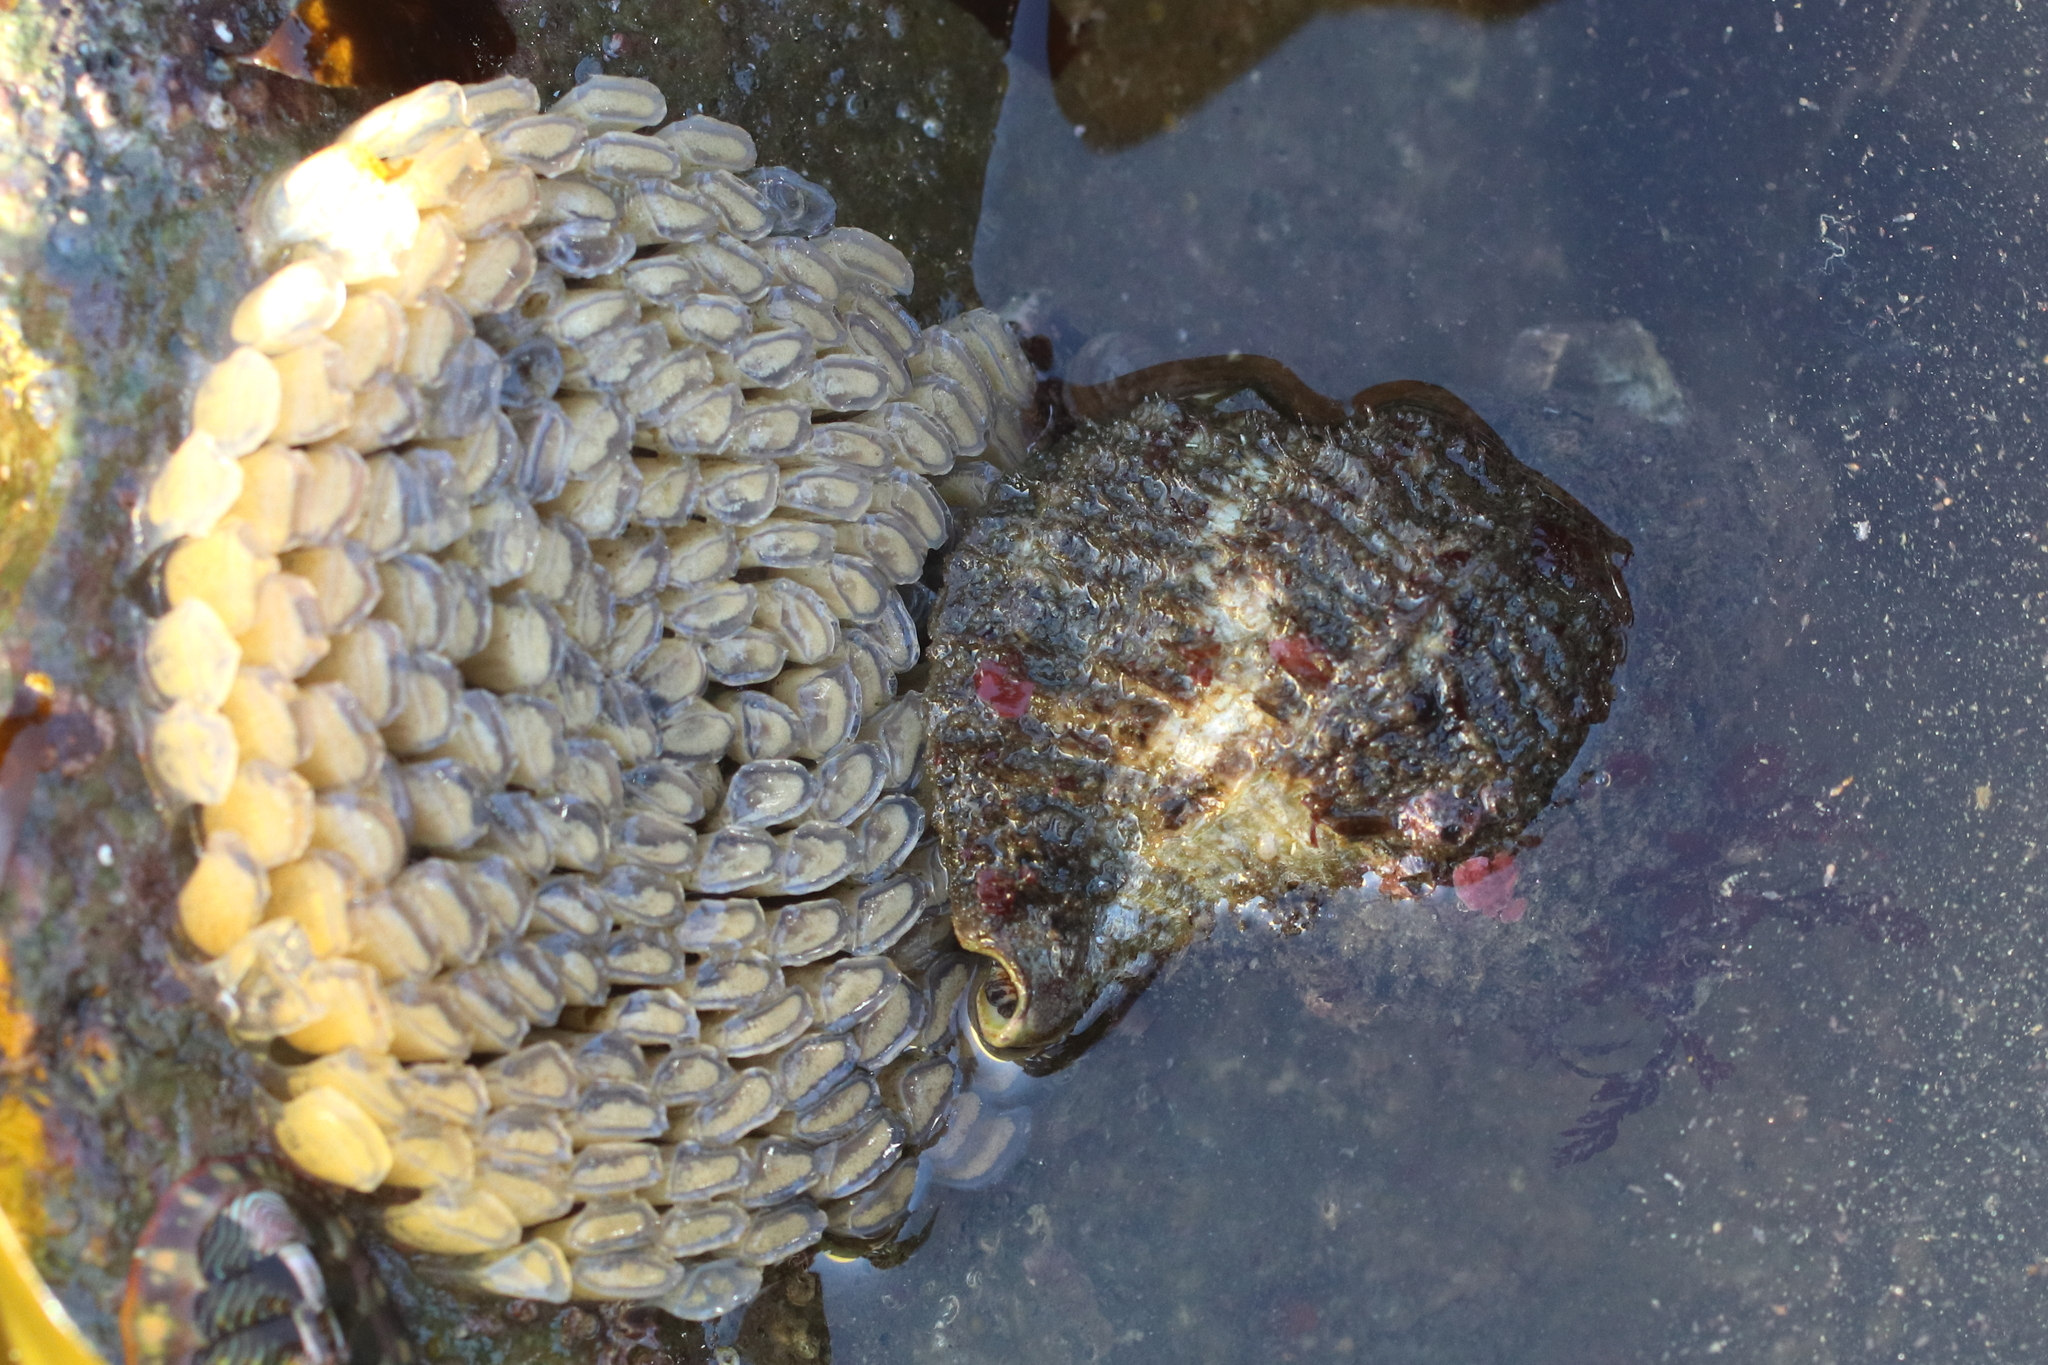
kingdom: Animalia
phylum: Mollusca
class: Gastropoda
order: Littorinimorpha
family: Cymatiidae
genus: Fusitriton
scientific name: Fusitriton oregonensis
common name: Oregon hairy triton
